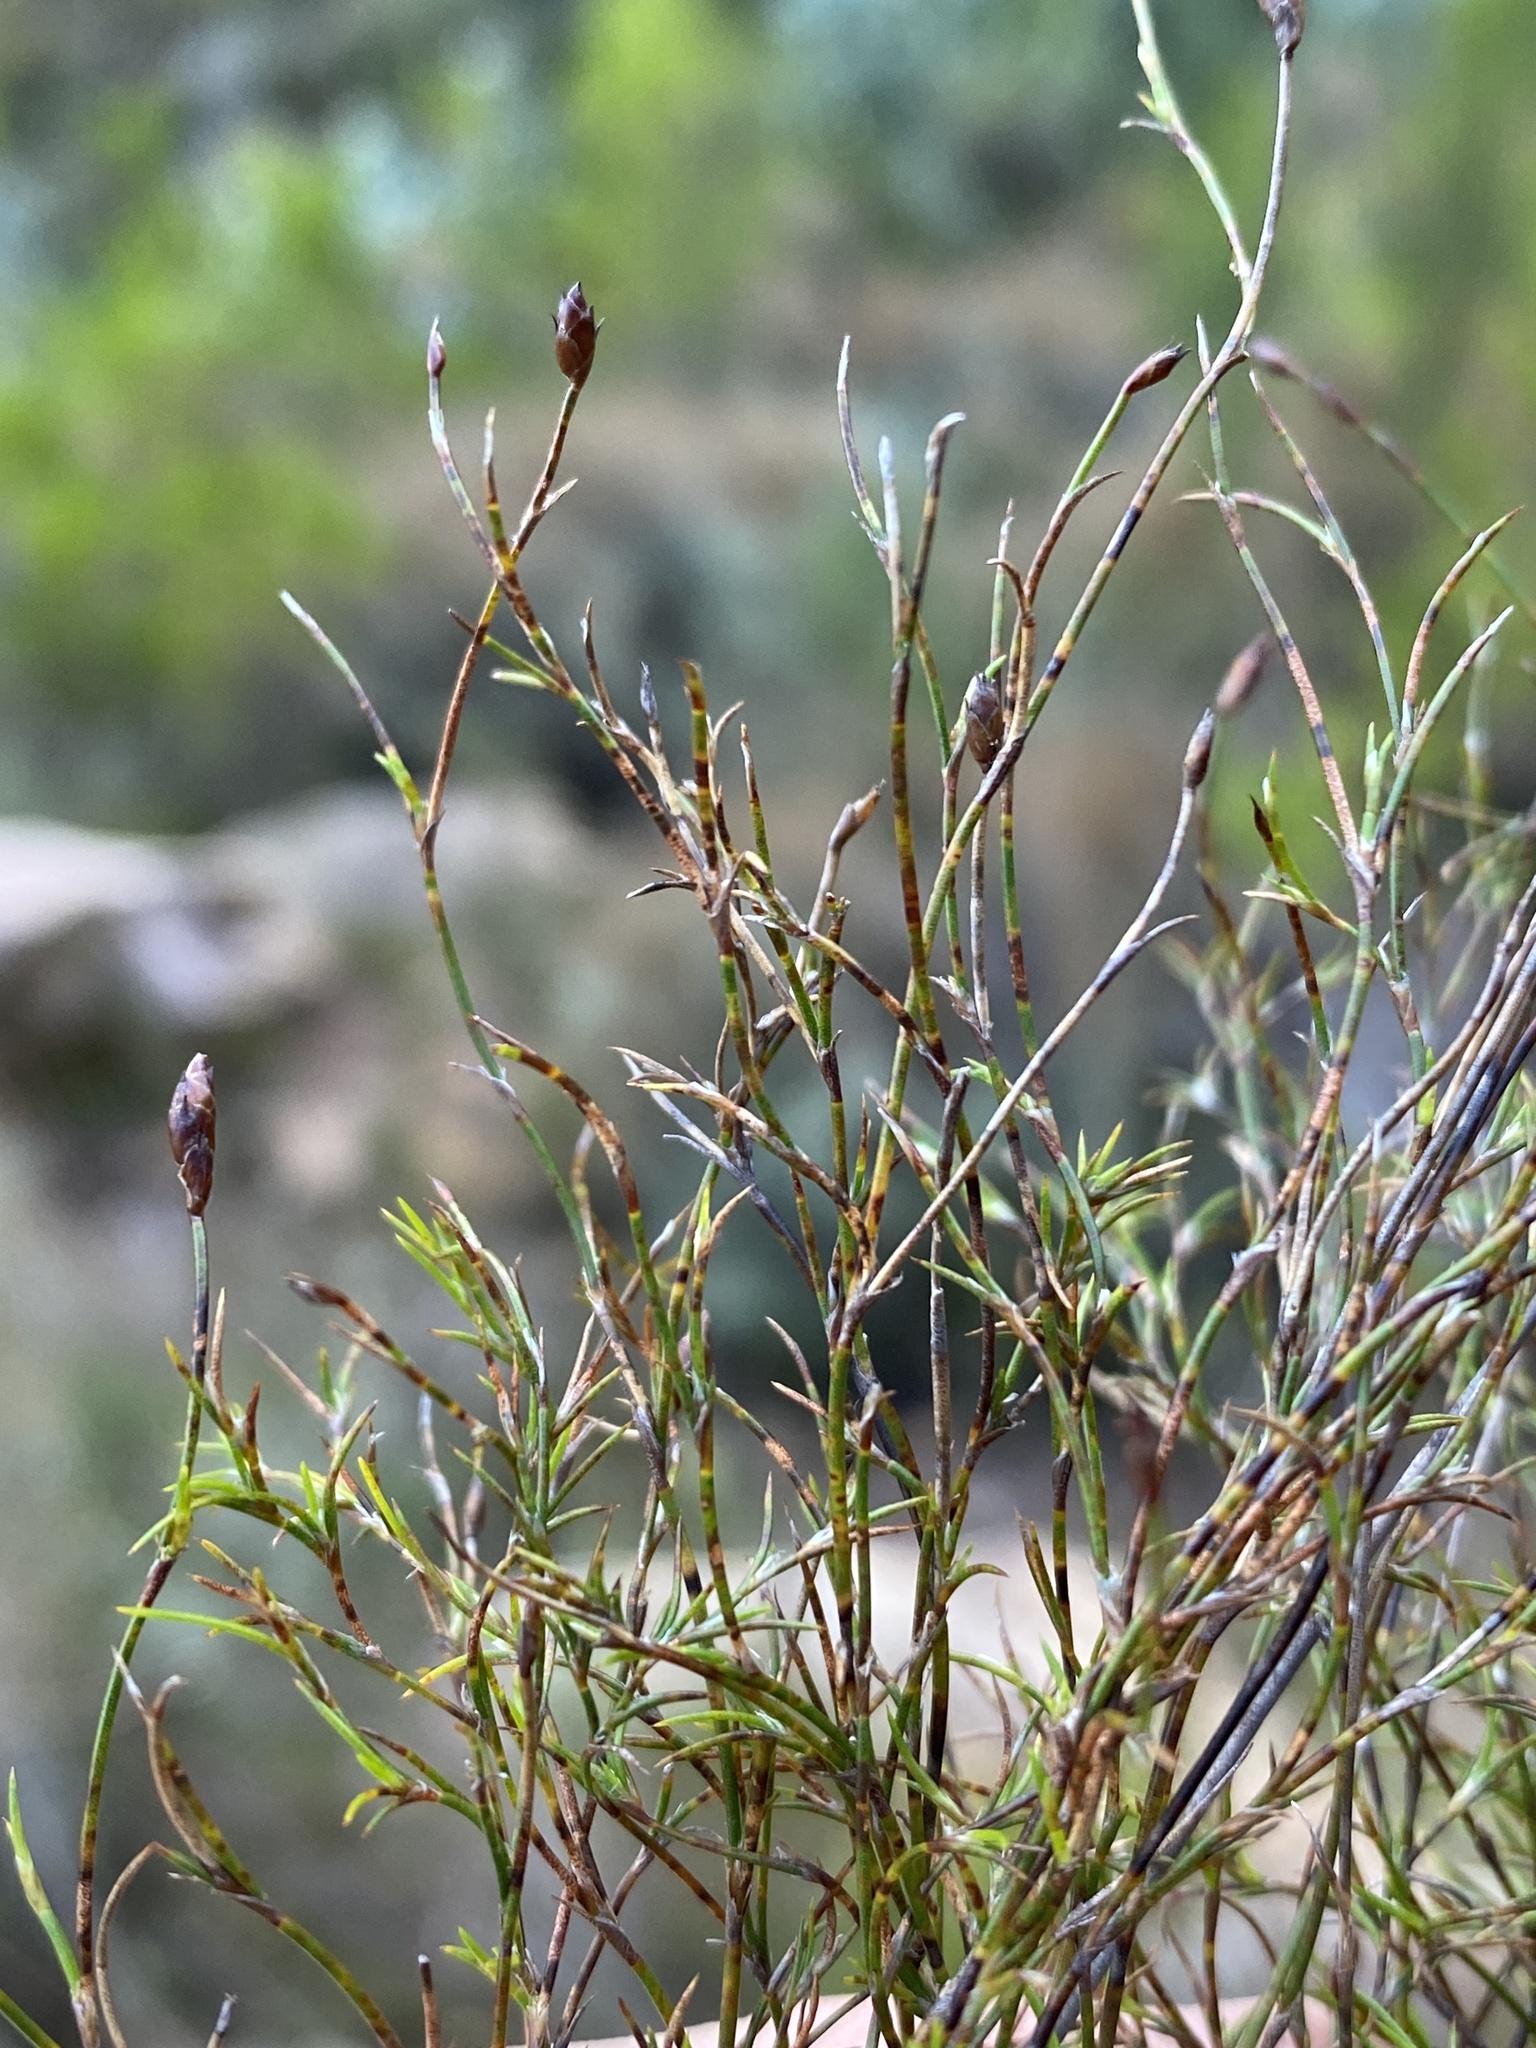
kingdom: Plantae
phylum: Tracheophyta
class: Liliopsida
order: Poales
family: Restionaceae
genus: Restio
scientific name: Restio gaudichaudianus
